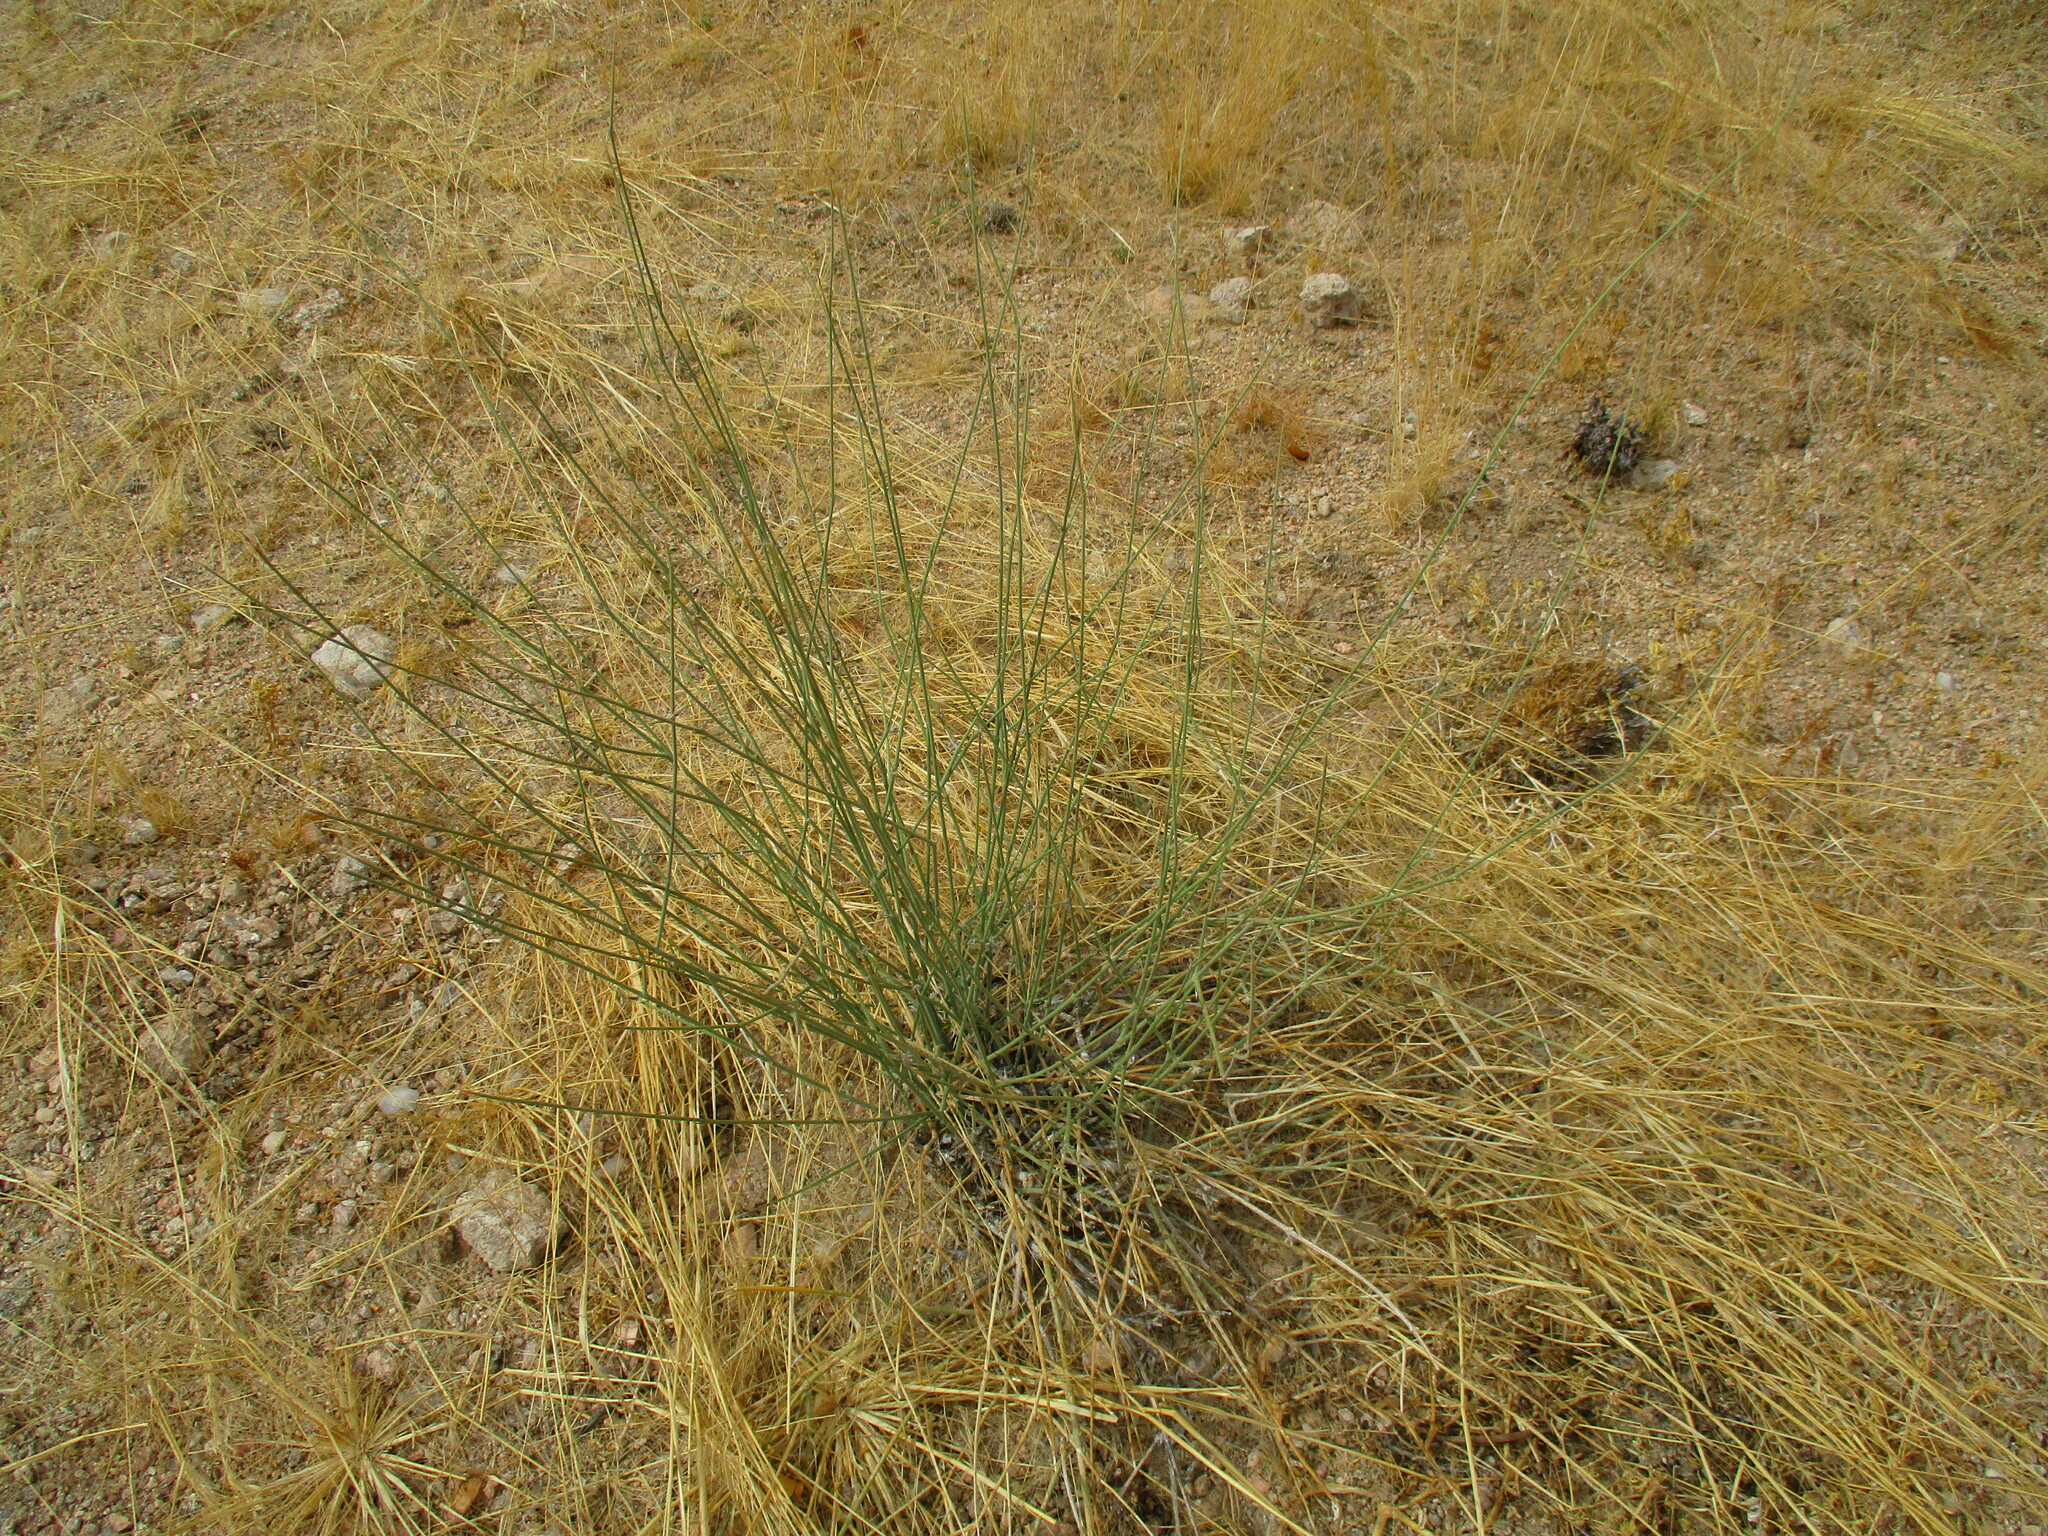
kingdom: Plantae
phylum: Tracheophyta
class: Magnoliopsida
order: Gentianales
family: Apocynaceae
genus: Orthanthera
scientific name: Orthanthera albida
